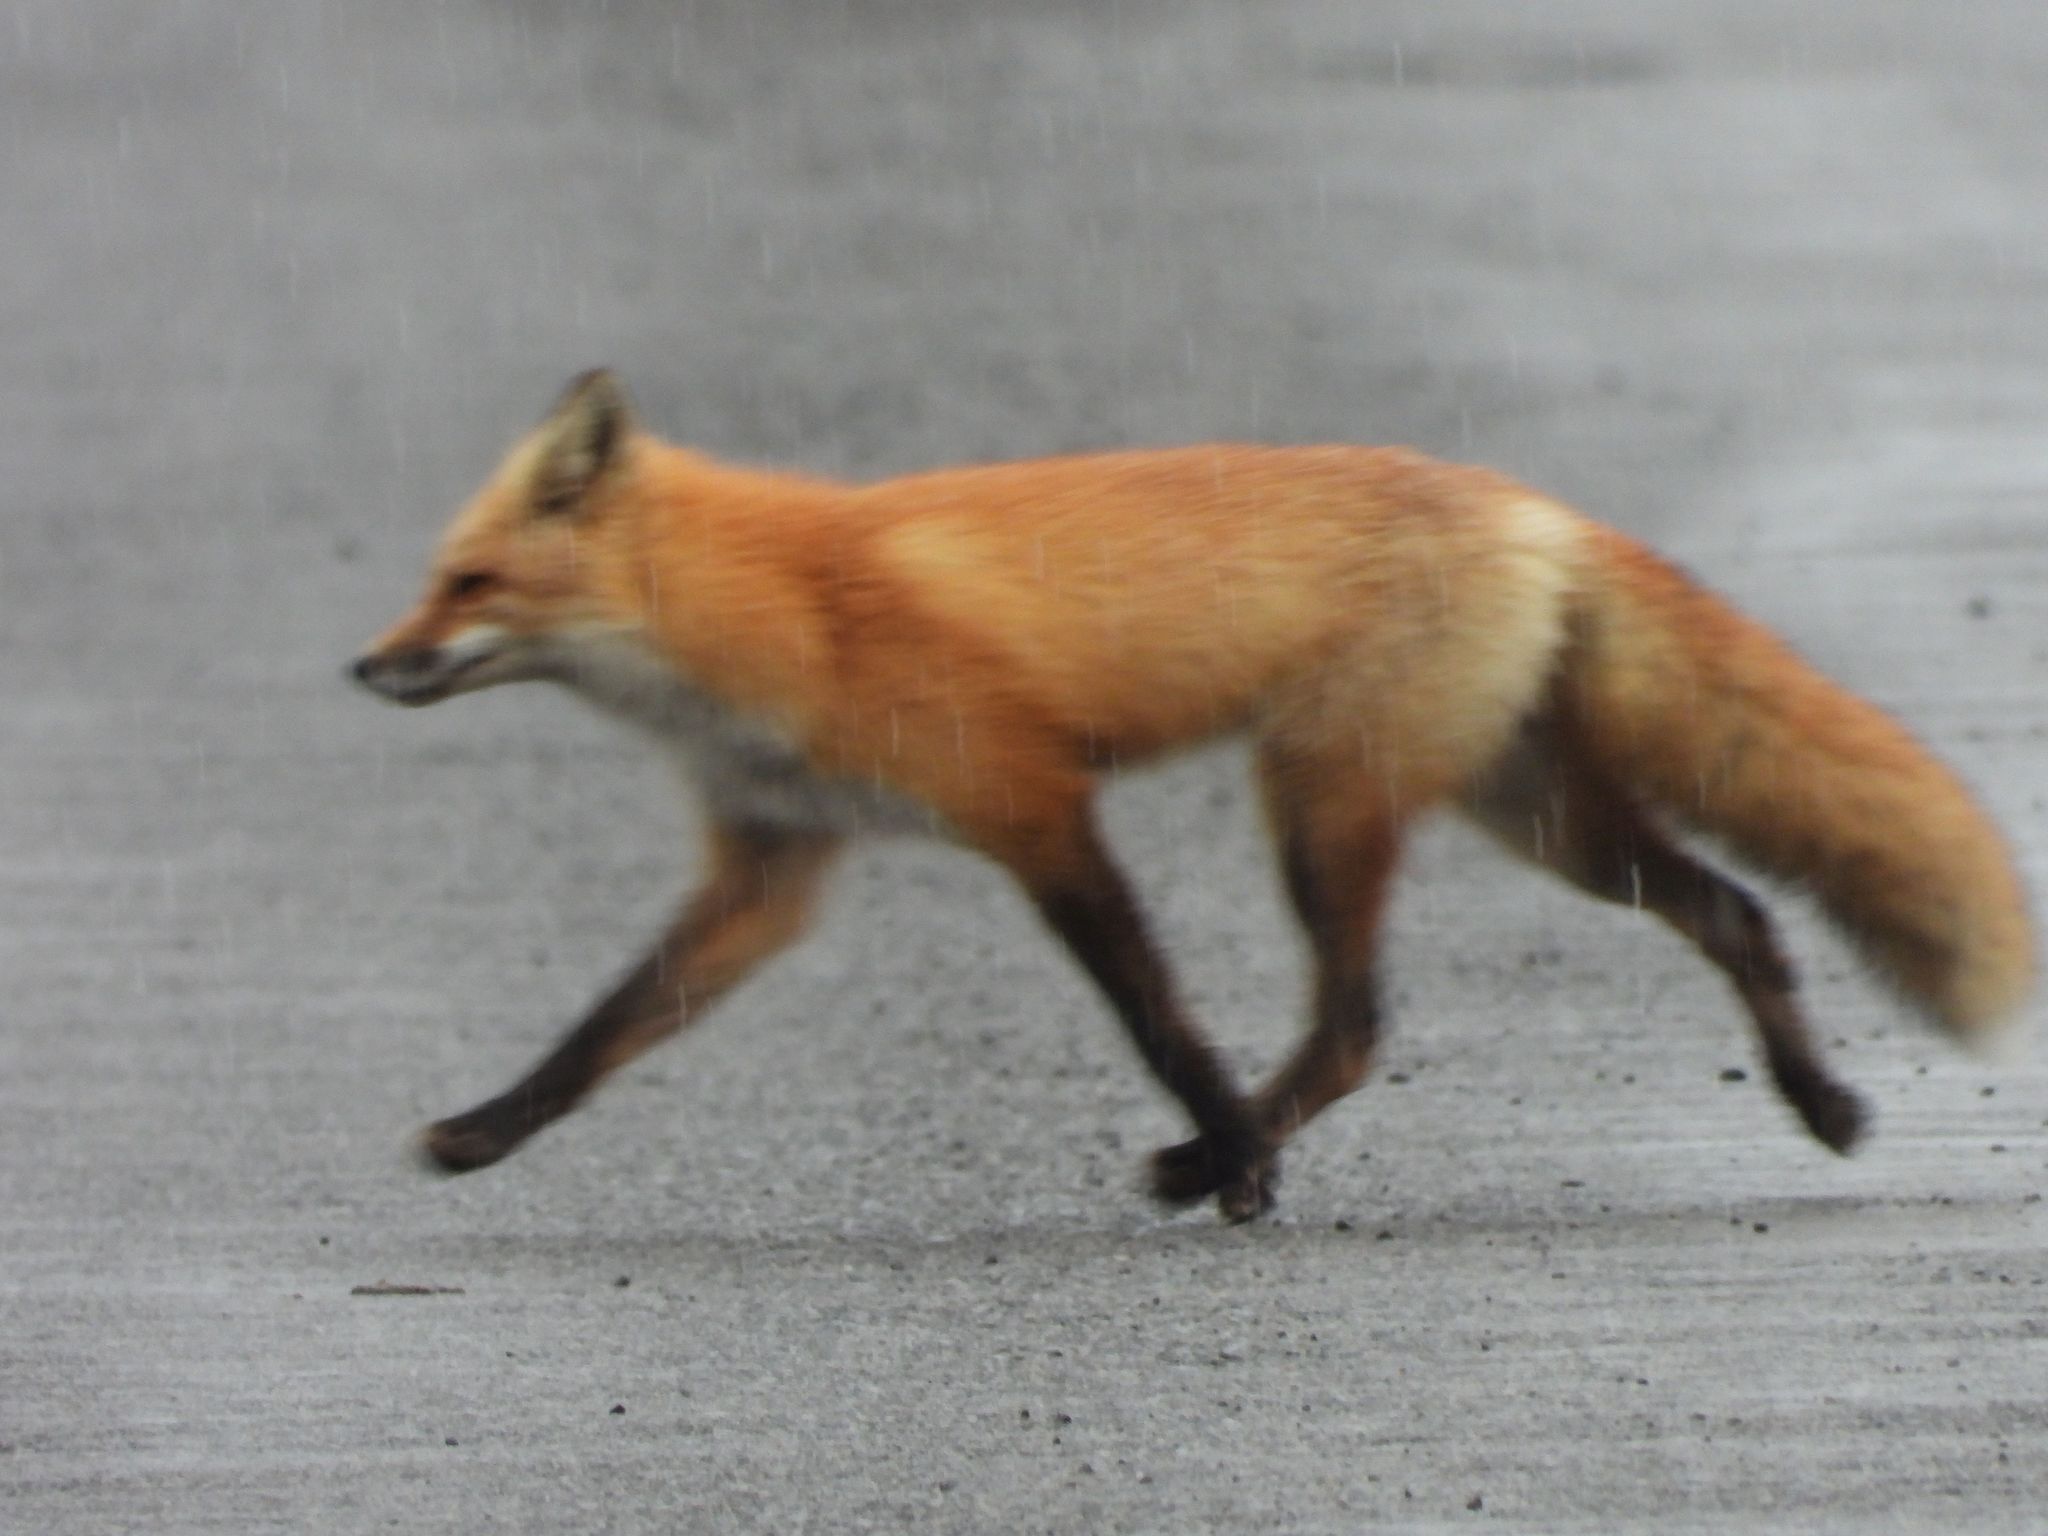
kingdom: Animalia
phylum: Chordata
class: Mammalia
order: Carnivora
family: Canidae
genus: Vulpes
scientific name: Vulpes vulpes
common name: Red fox
